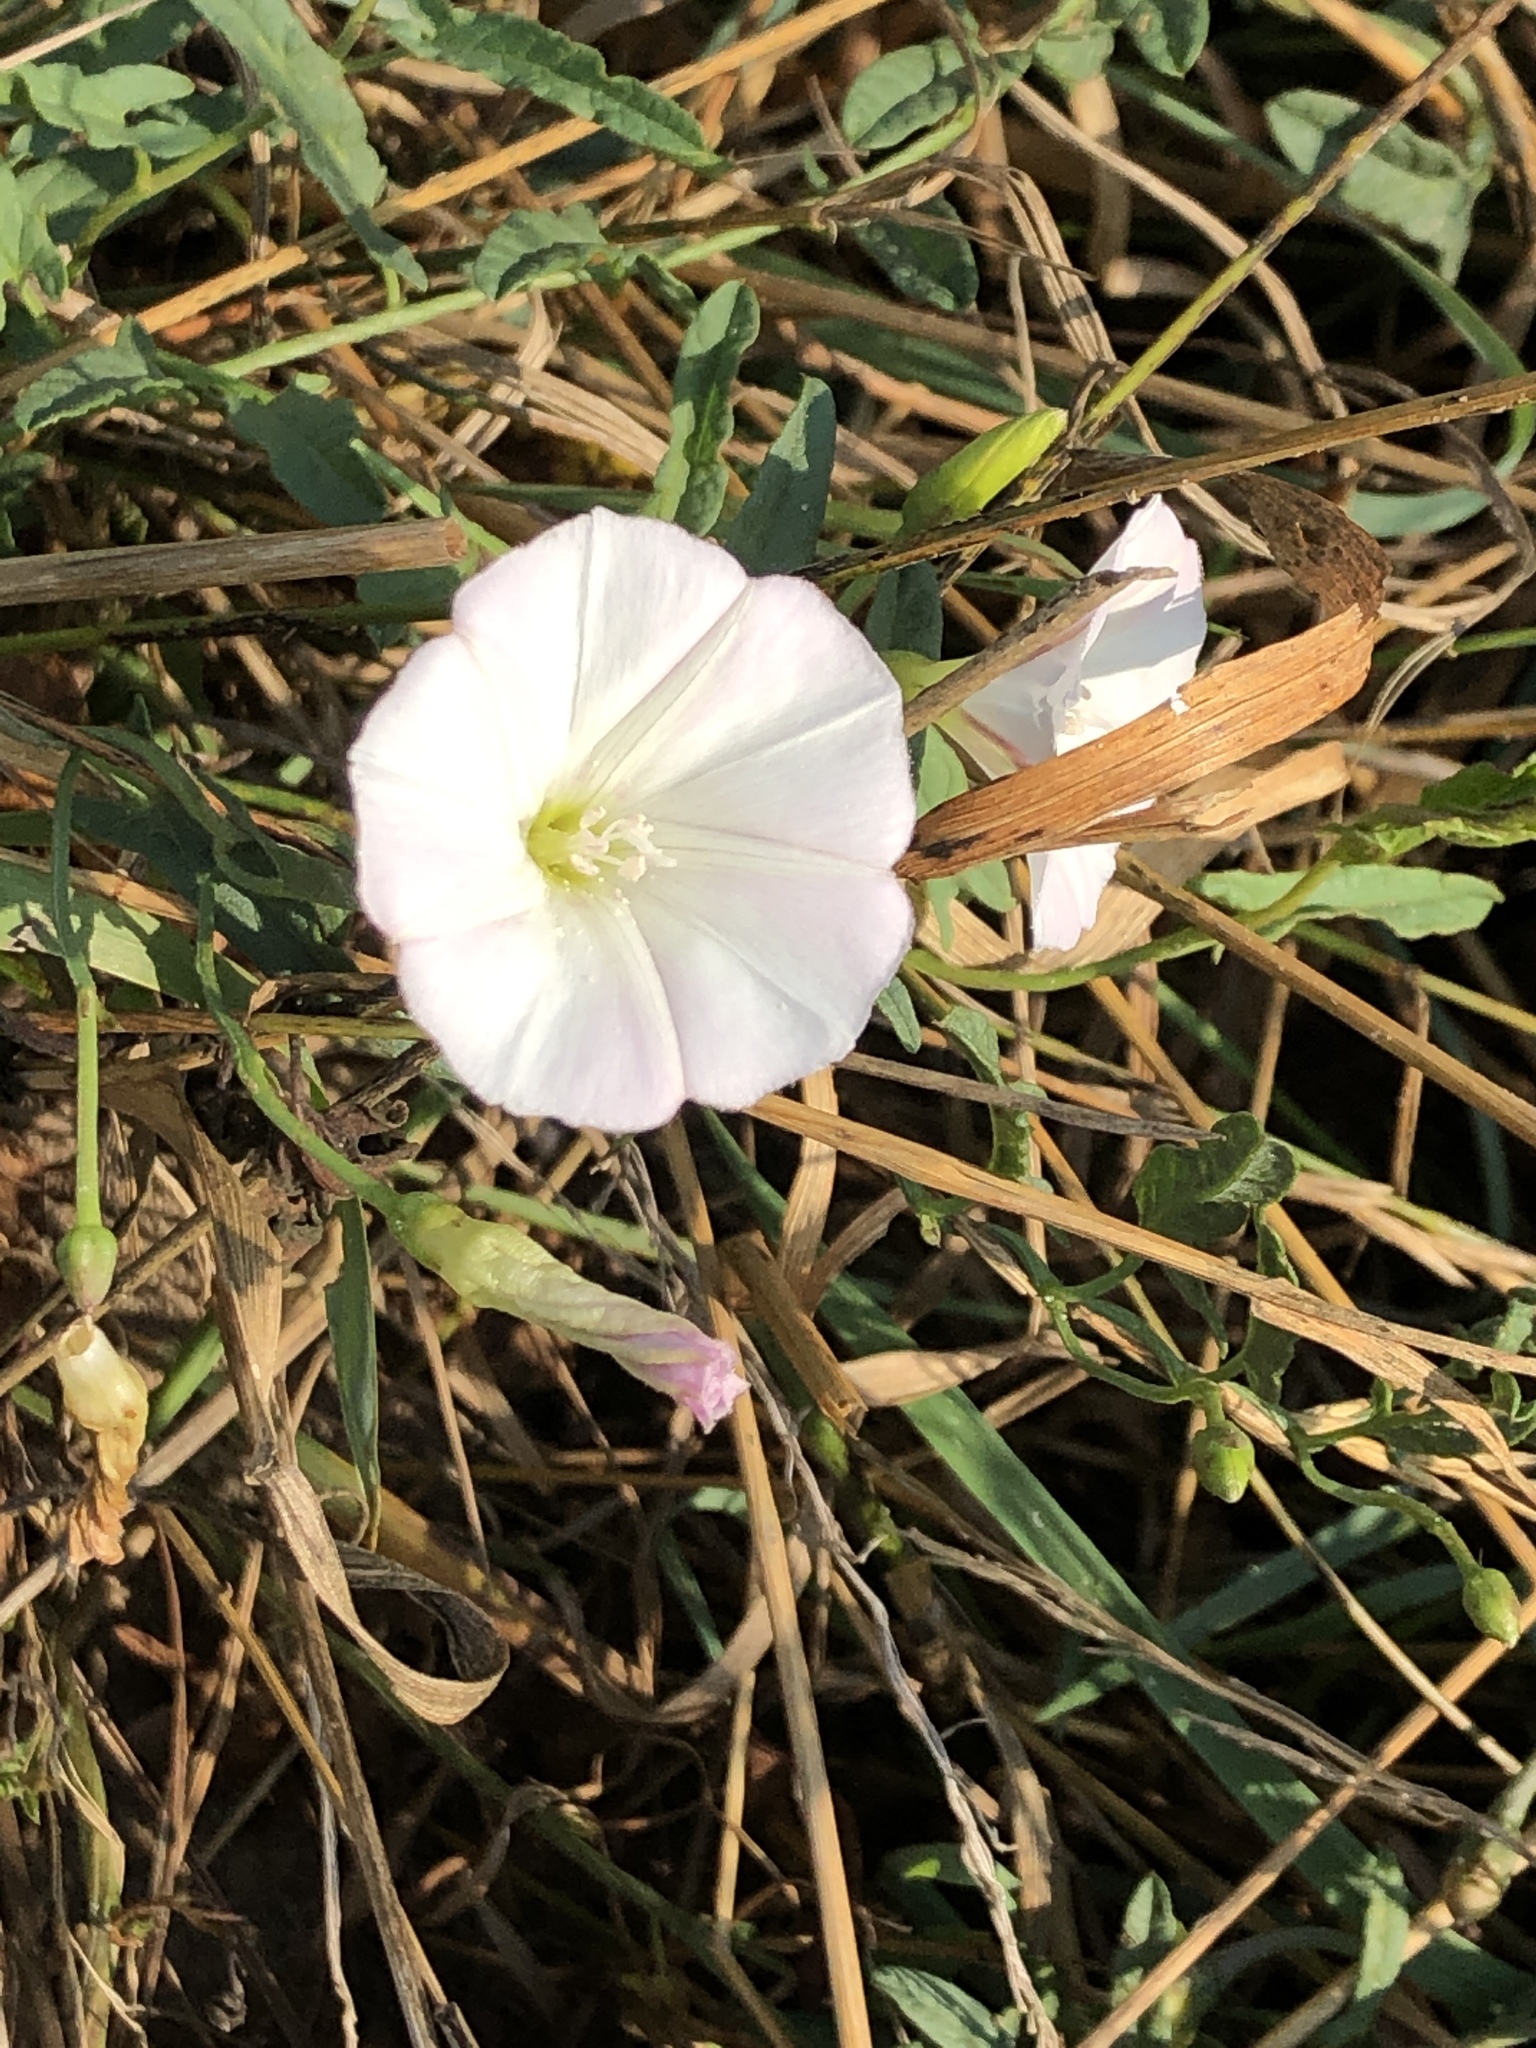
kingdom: Plantae
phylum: Tracheophyta
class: Magnoliopsida
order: Solanales
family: Convolvulaceae
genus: Convolvulus
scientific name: Convolvulus arvensis
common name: Field bindweed
